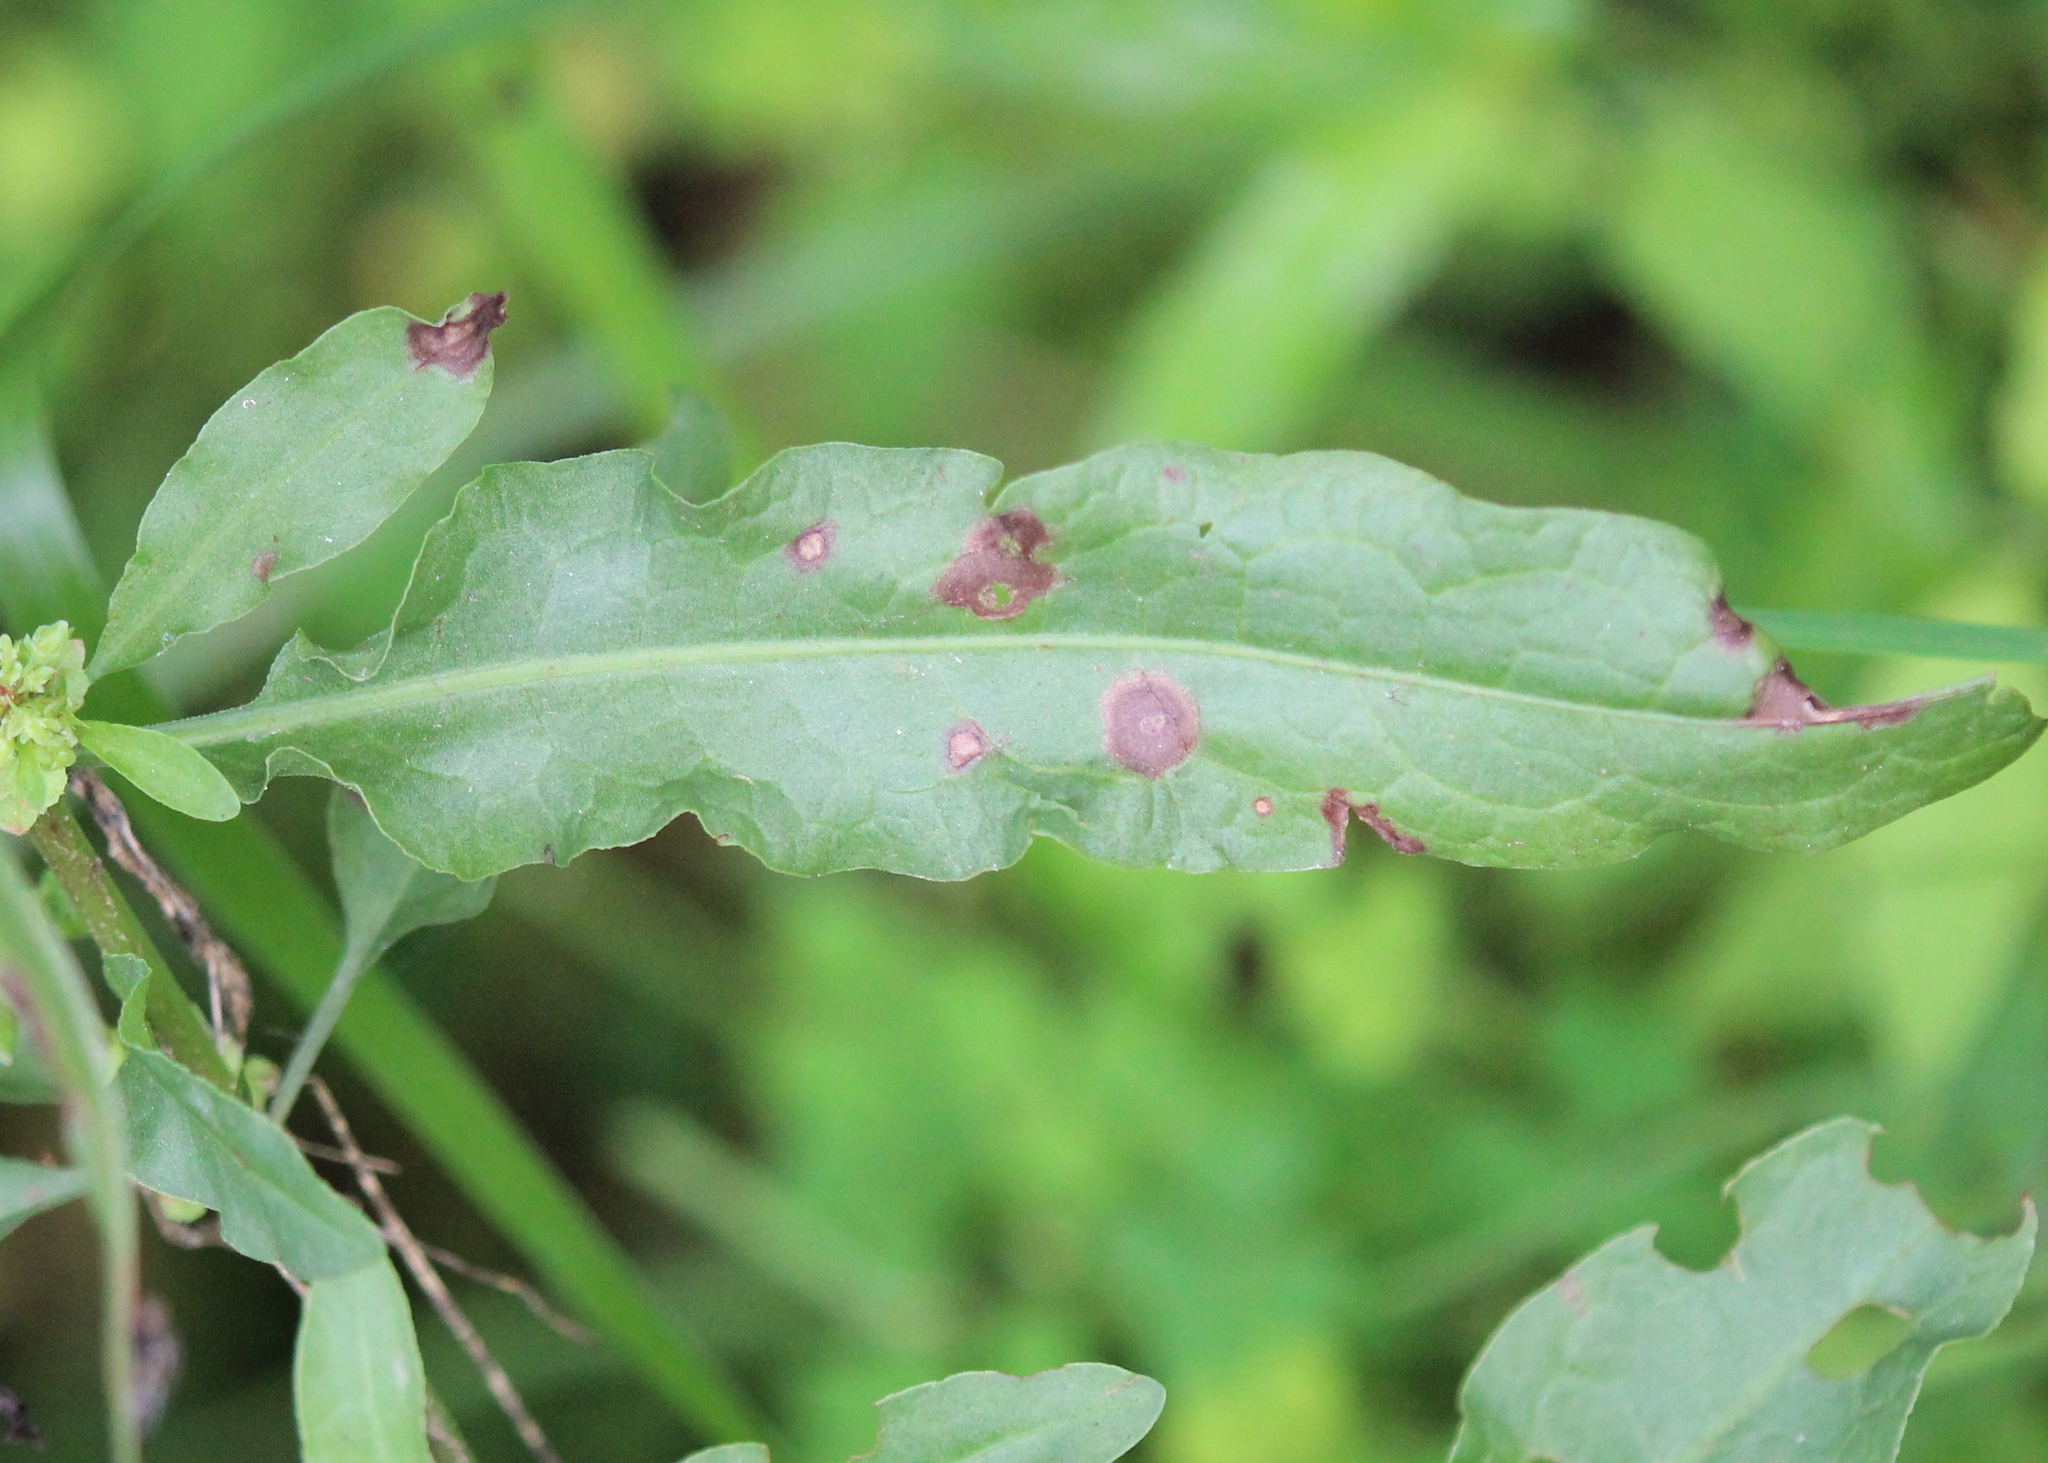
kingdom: Plantae
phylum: Tracheophyta
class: Magnoliopsida
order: Caryophyllales
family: Polygonaceae
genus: Rumex
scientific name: Rumex crispus
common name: Curled dock
